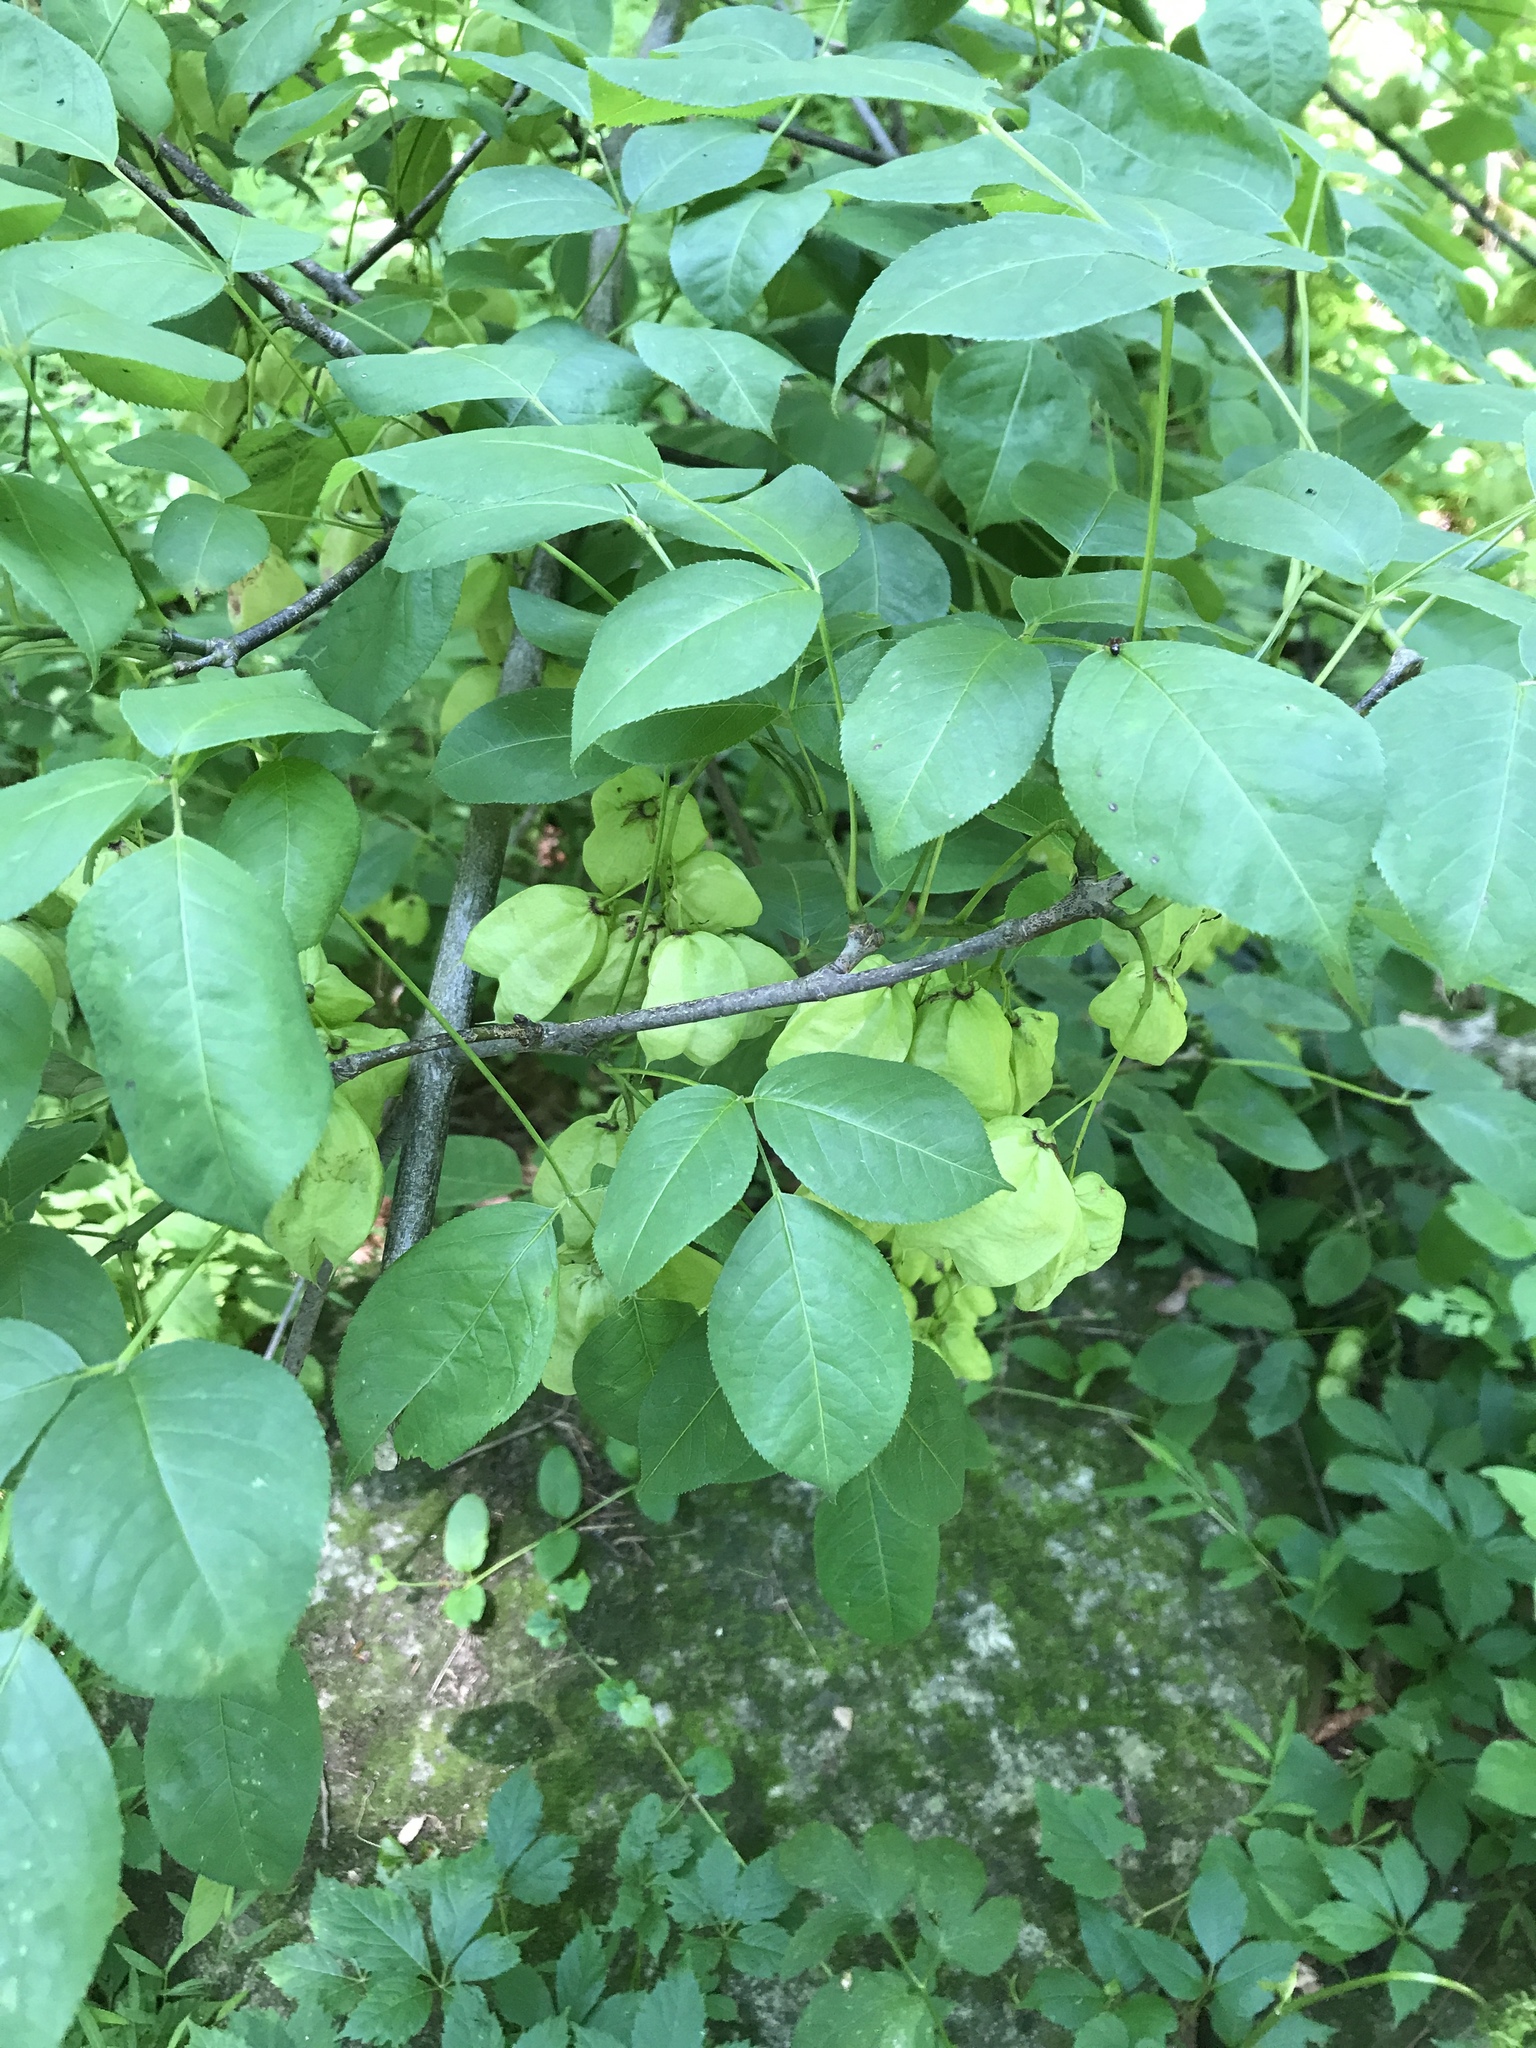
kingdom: Plantae
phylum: Tracheophyta
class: Magnoliopsida
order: Crossosomatales
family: Staphyleaceae
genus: Staphylea
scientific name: Staphylea trifolia
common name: American bladdernut
